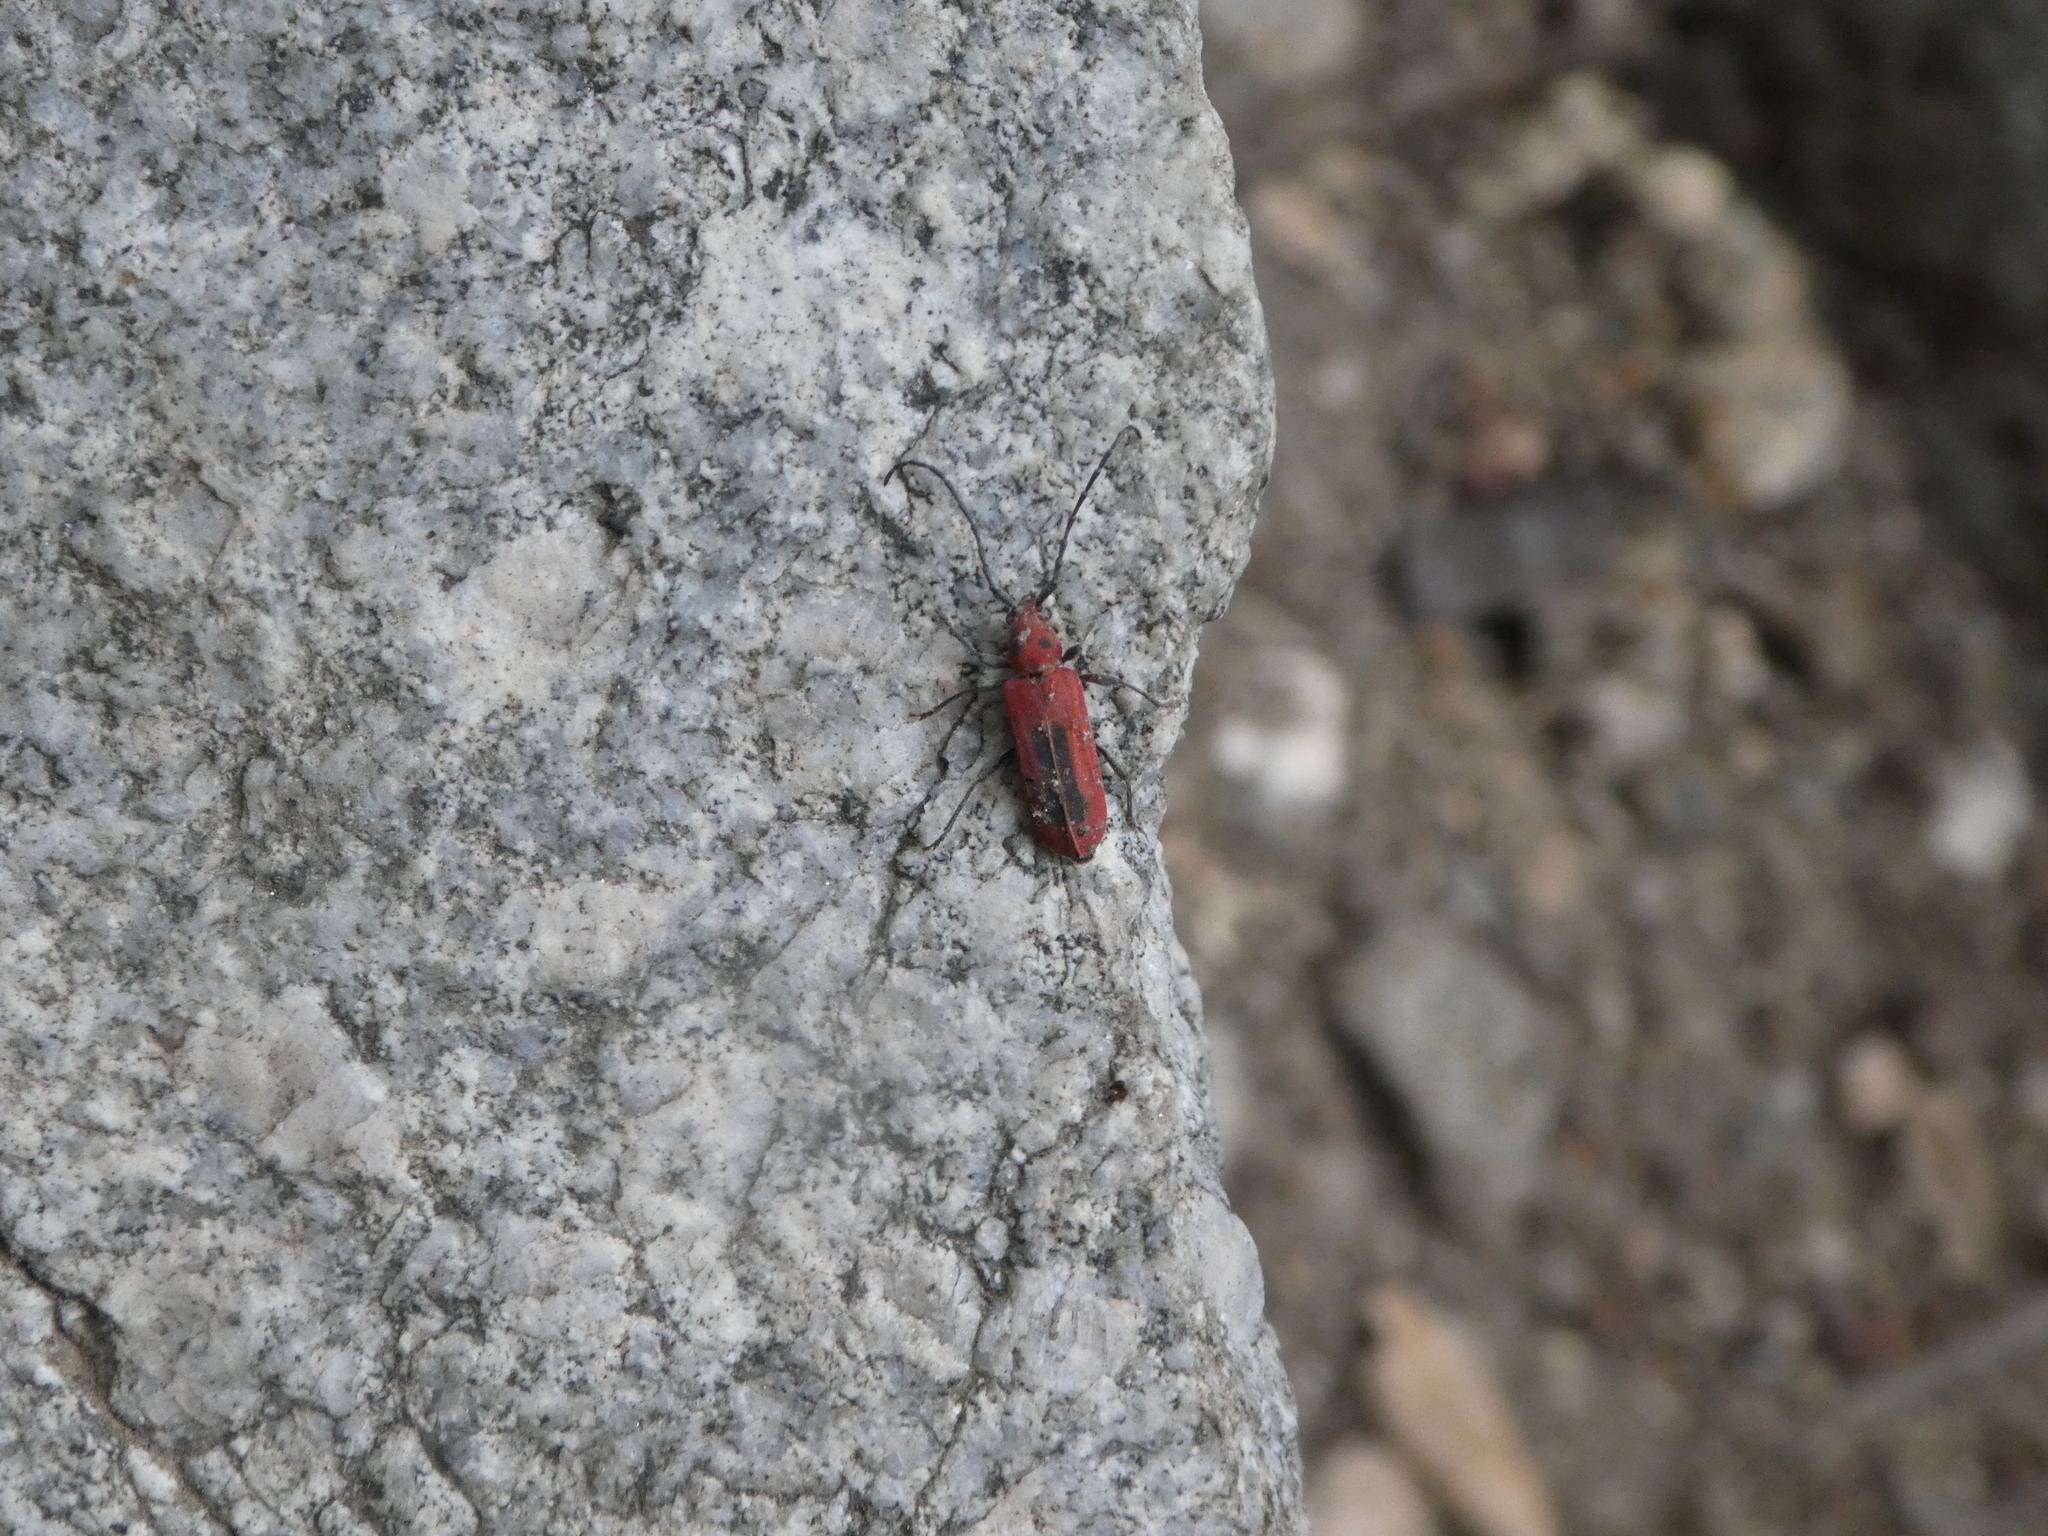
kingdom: Animalia
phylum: Arthropoda
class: Insecta
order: Coleoptera
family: Cerambycidae
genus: Holopleura
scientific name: Holopleura marginata
